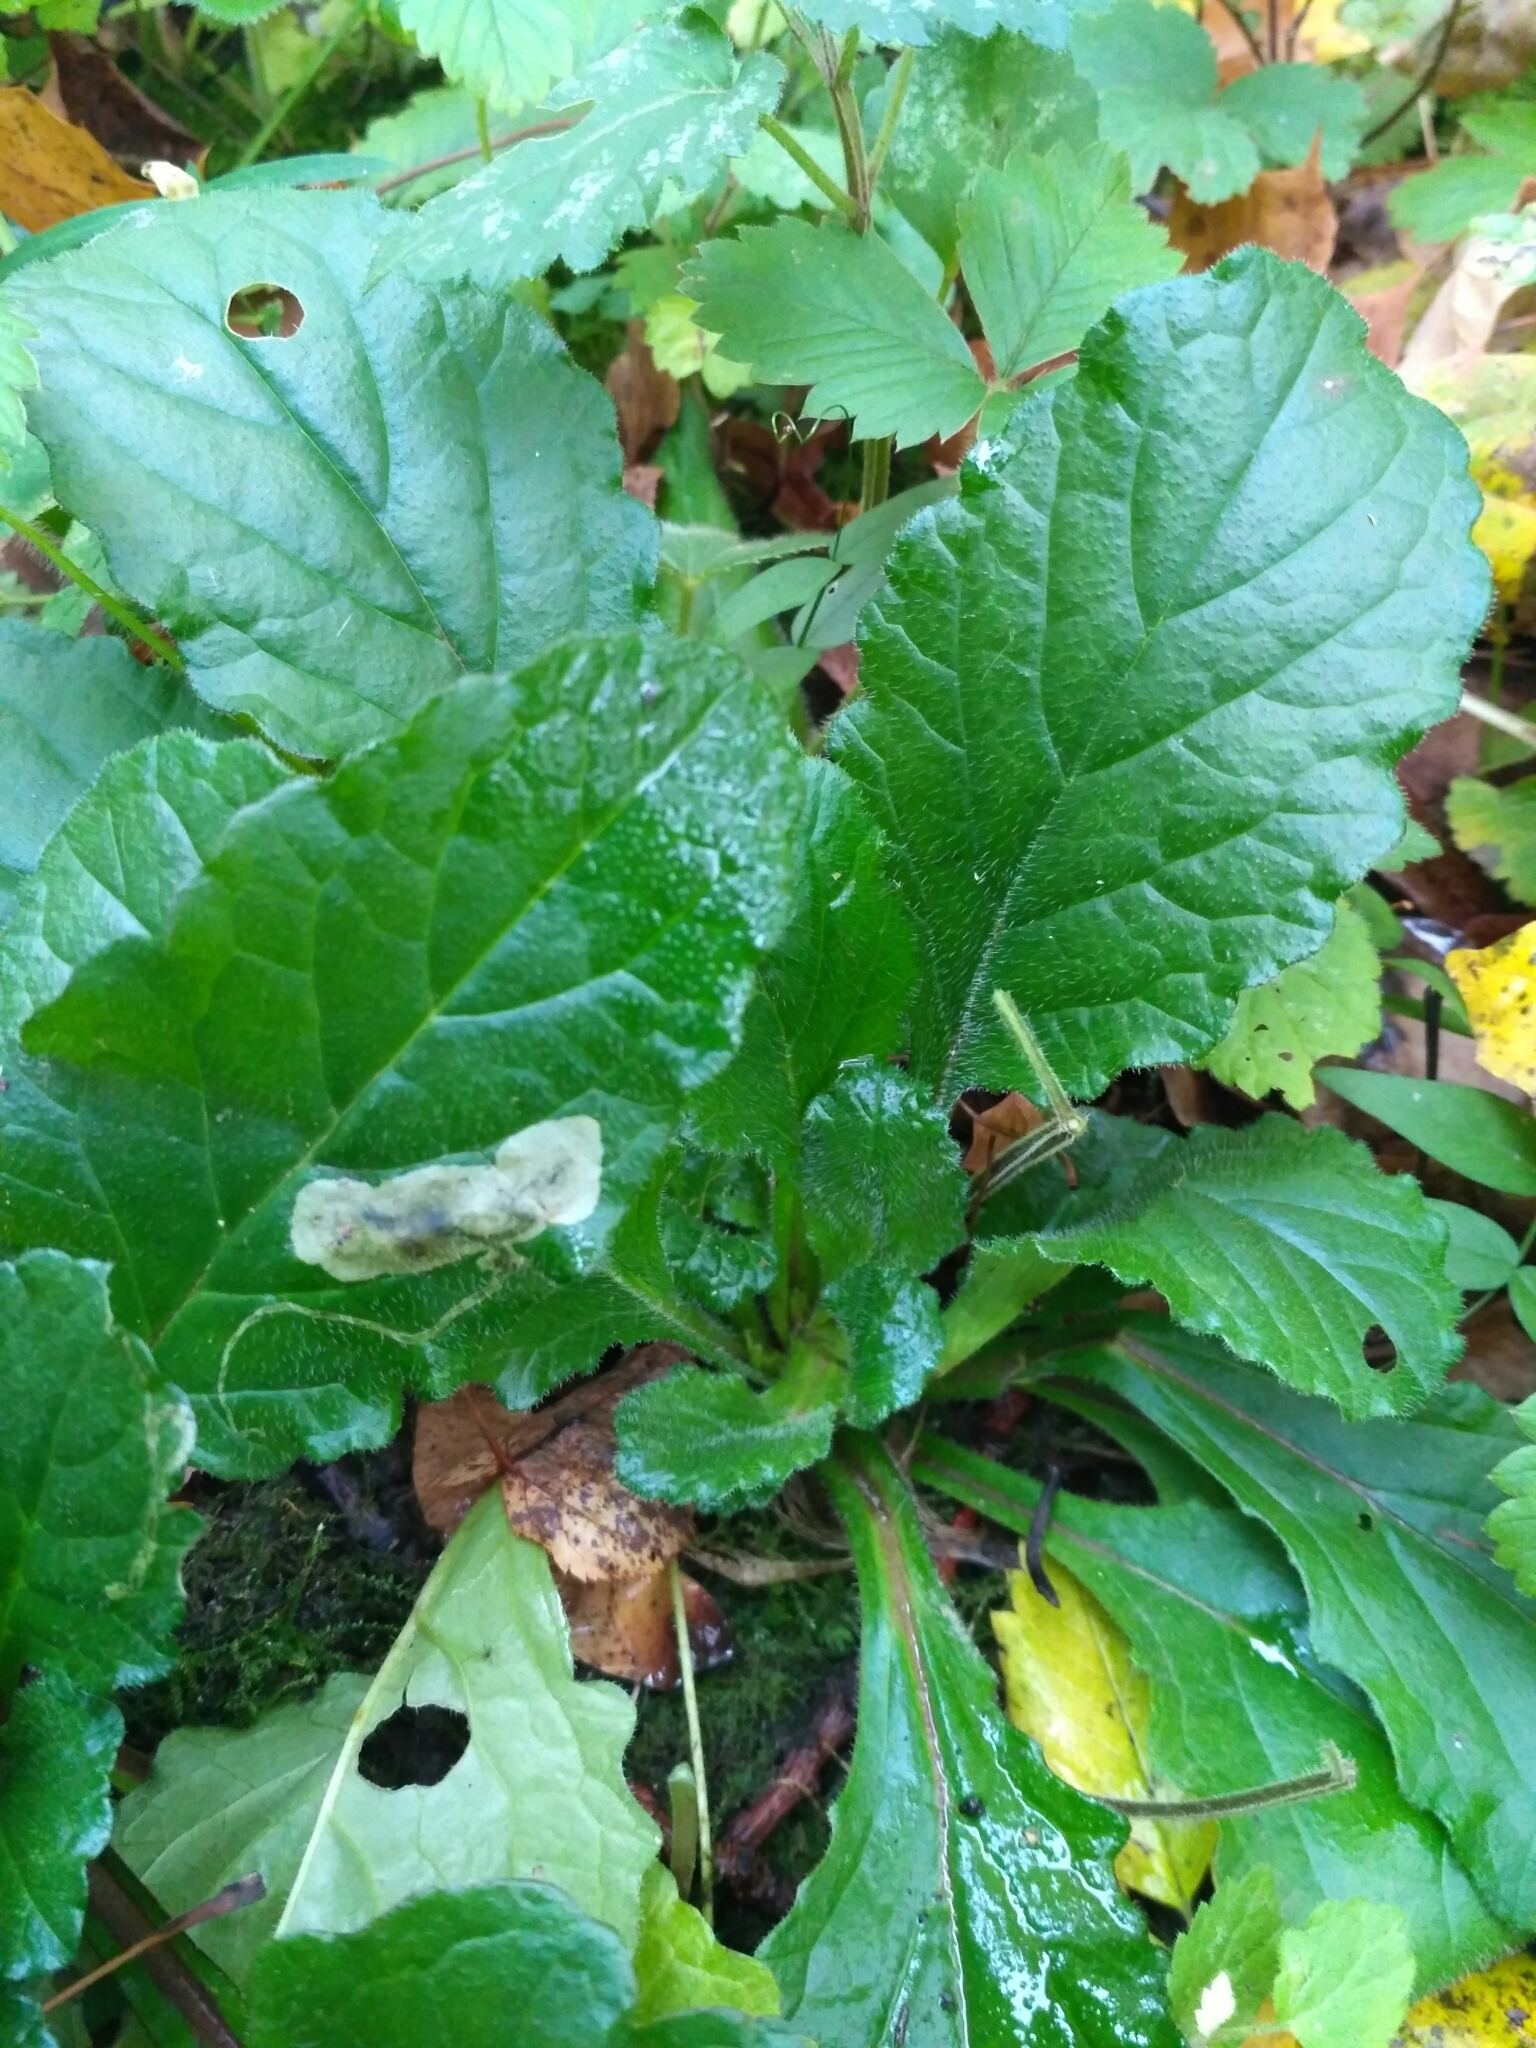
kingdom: Plantae
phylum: Tracheophyta
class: Magnoliopsida
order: Lamiales
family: Lamiaceae
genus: Ajuga
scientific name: Ajuga reptans
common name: Bugle
